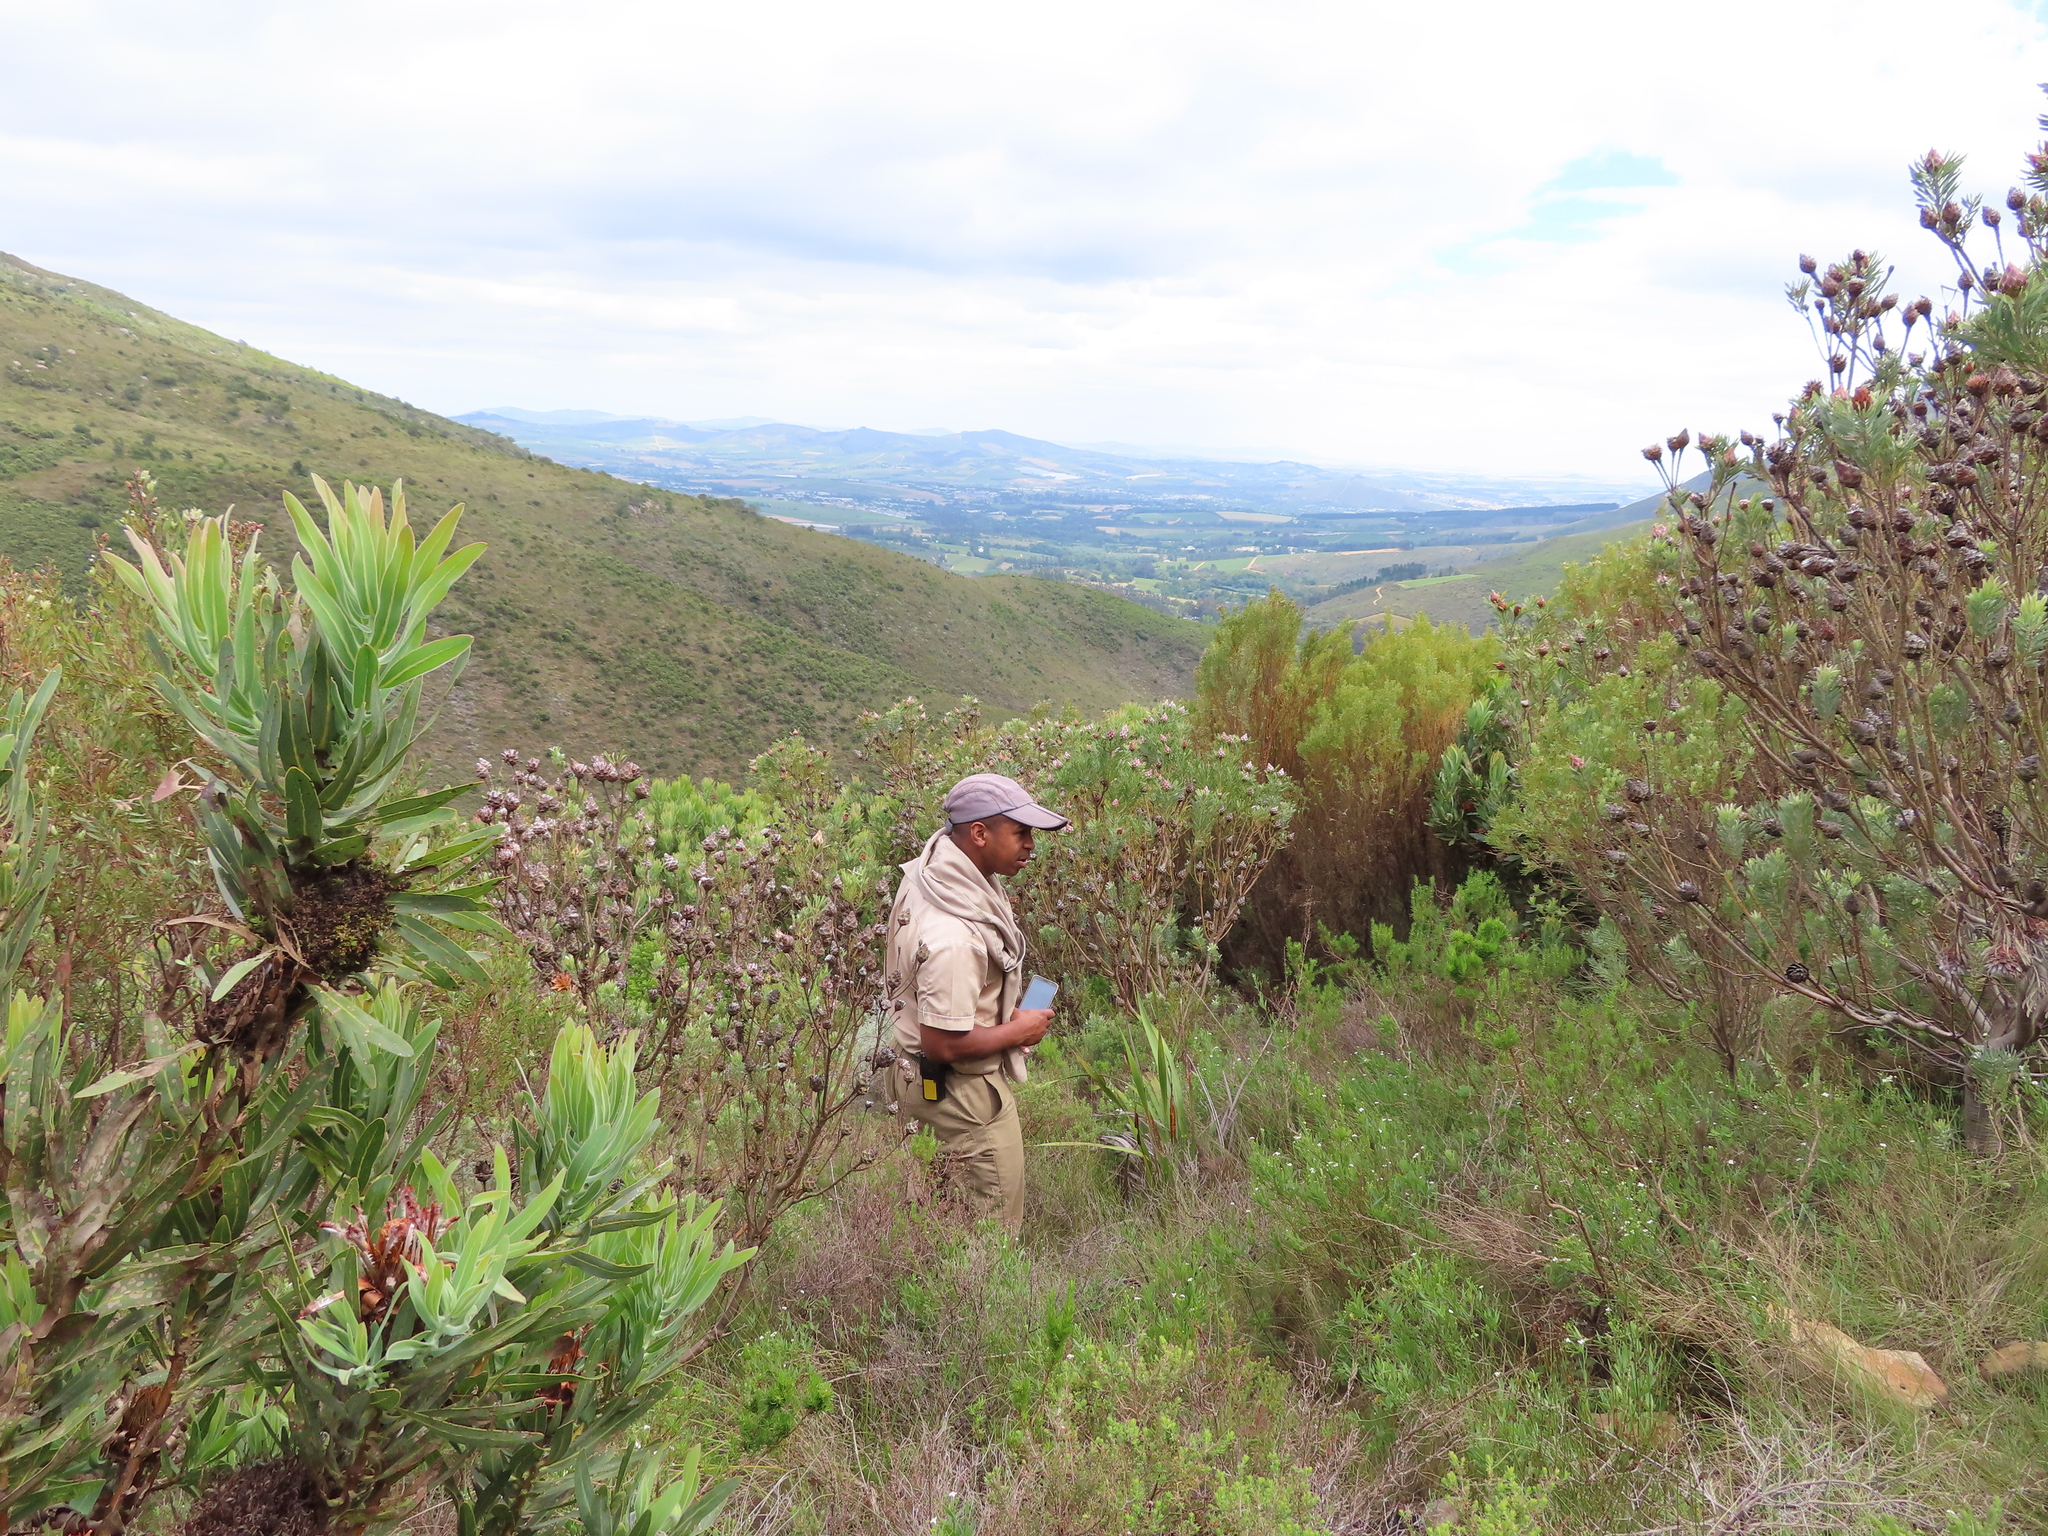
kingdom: Plantae
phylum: Tracheophyta
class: Magnoliopsida
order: Proteales
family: Proteaceae
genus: Leucadendron
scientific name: Leucadendron rubrum
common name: Spinning top
